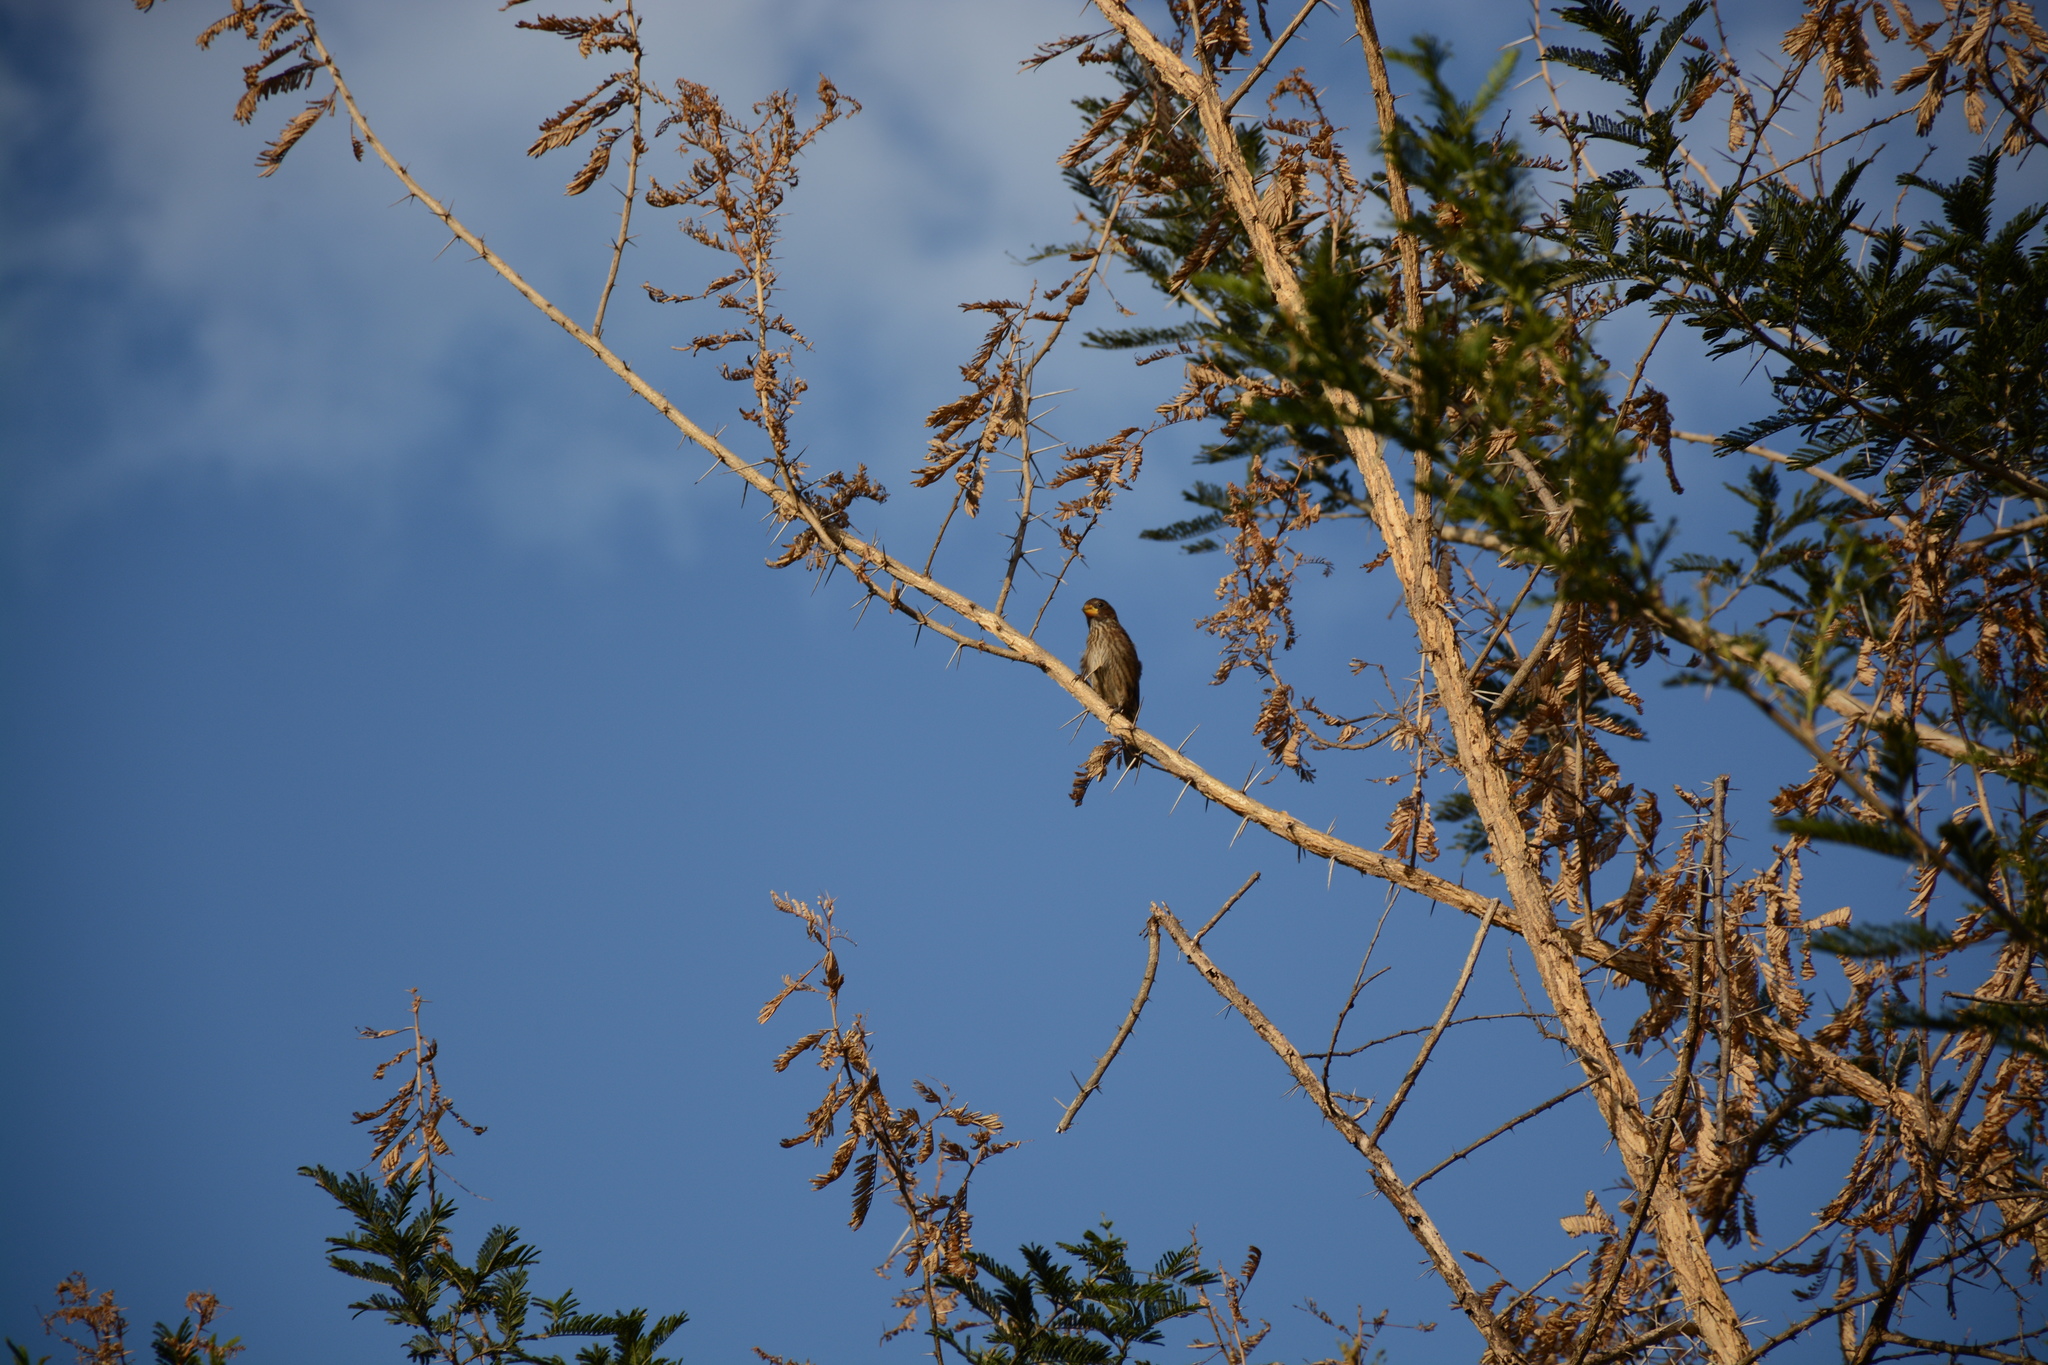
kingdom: Animalia
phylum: Chordata
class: Aves
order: Passeriformes
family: Ploceidae
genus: Amblyospiza
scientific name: Amblyospiza albifrons
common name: Thick-billed weaver
